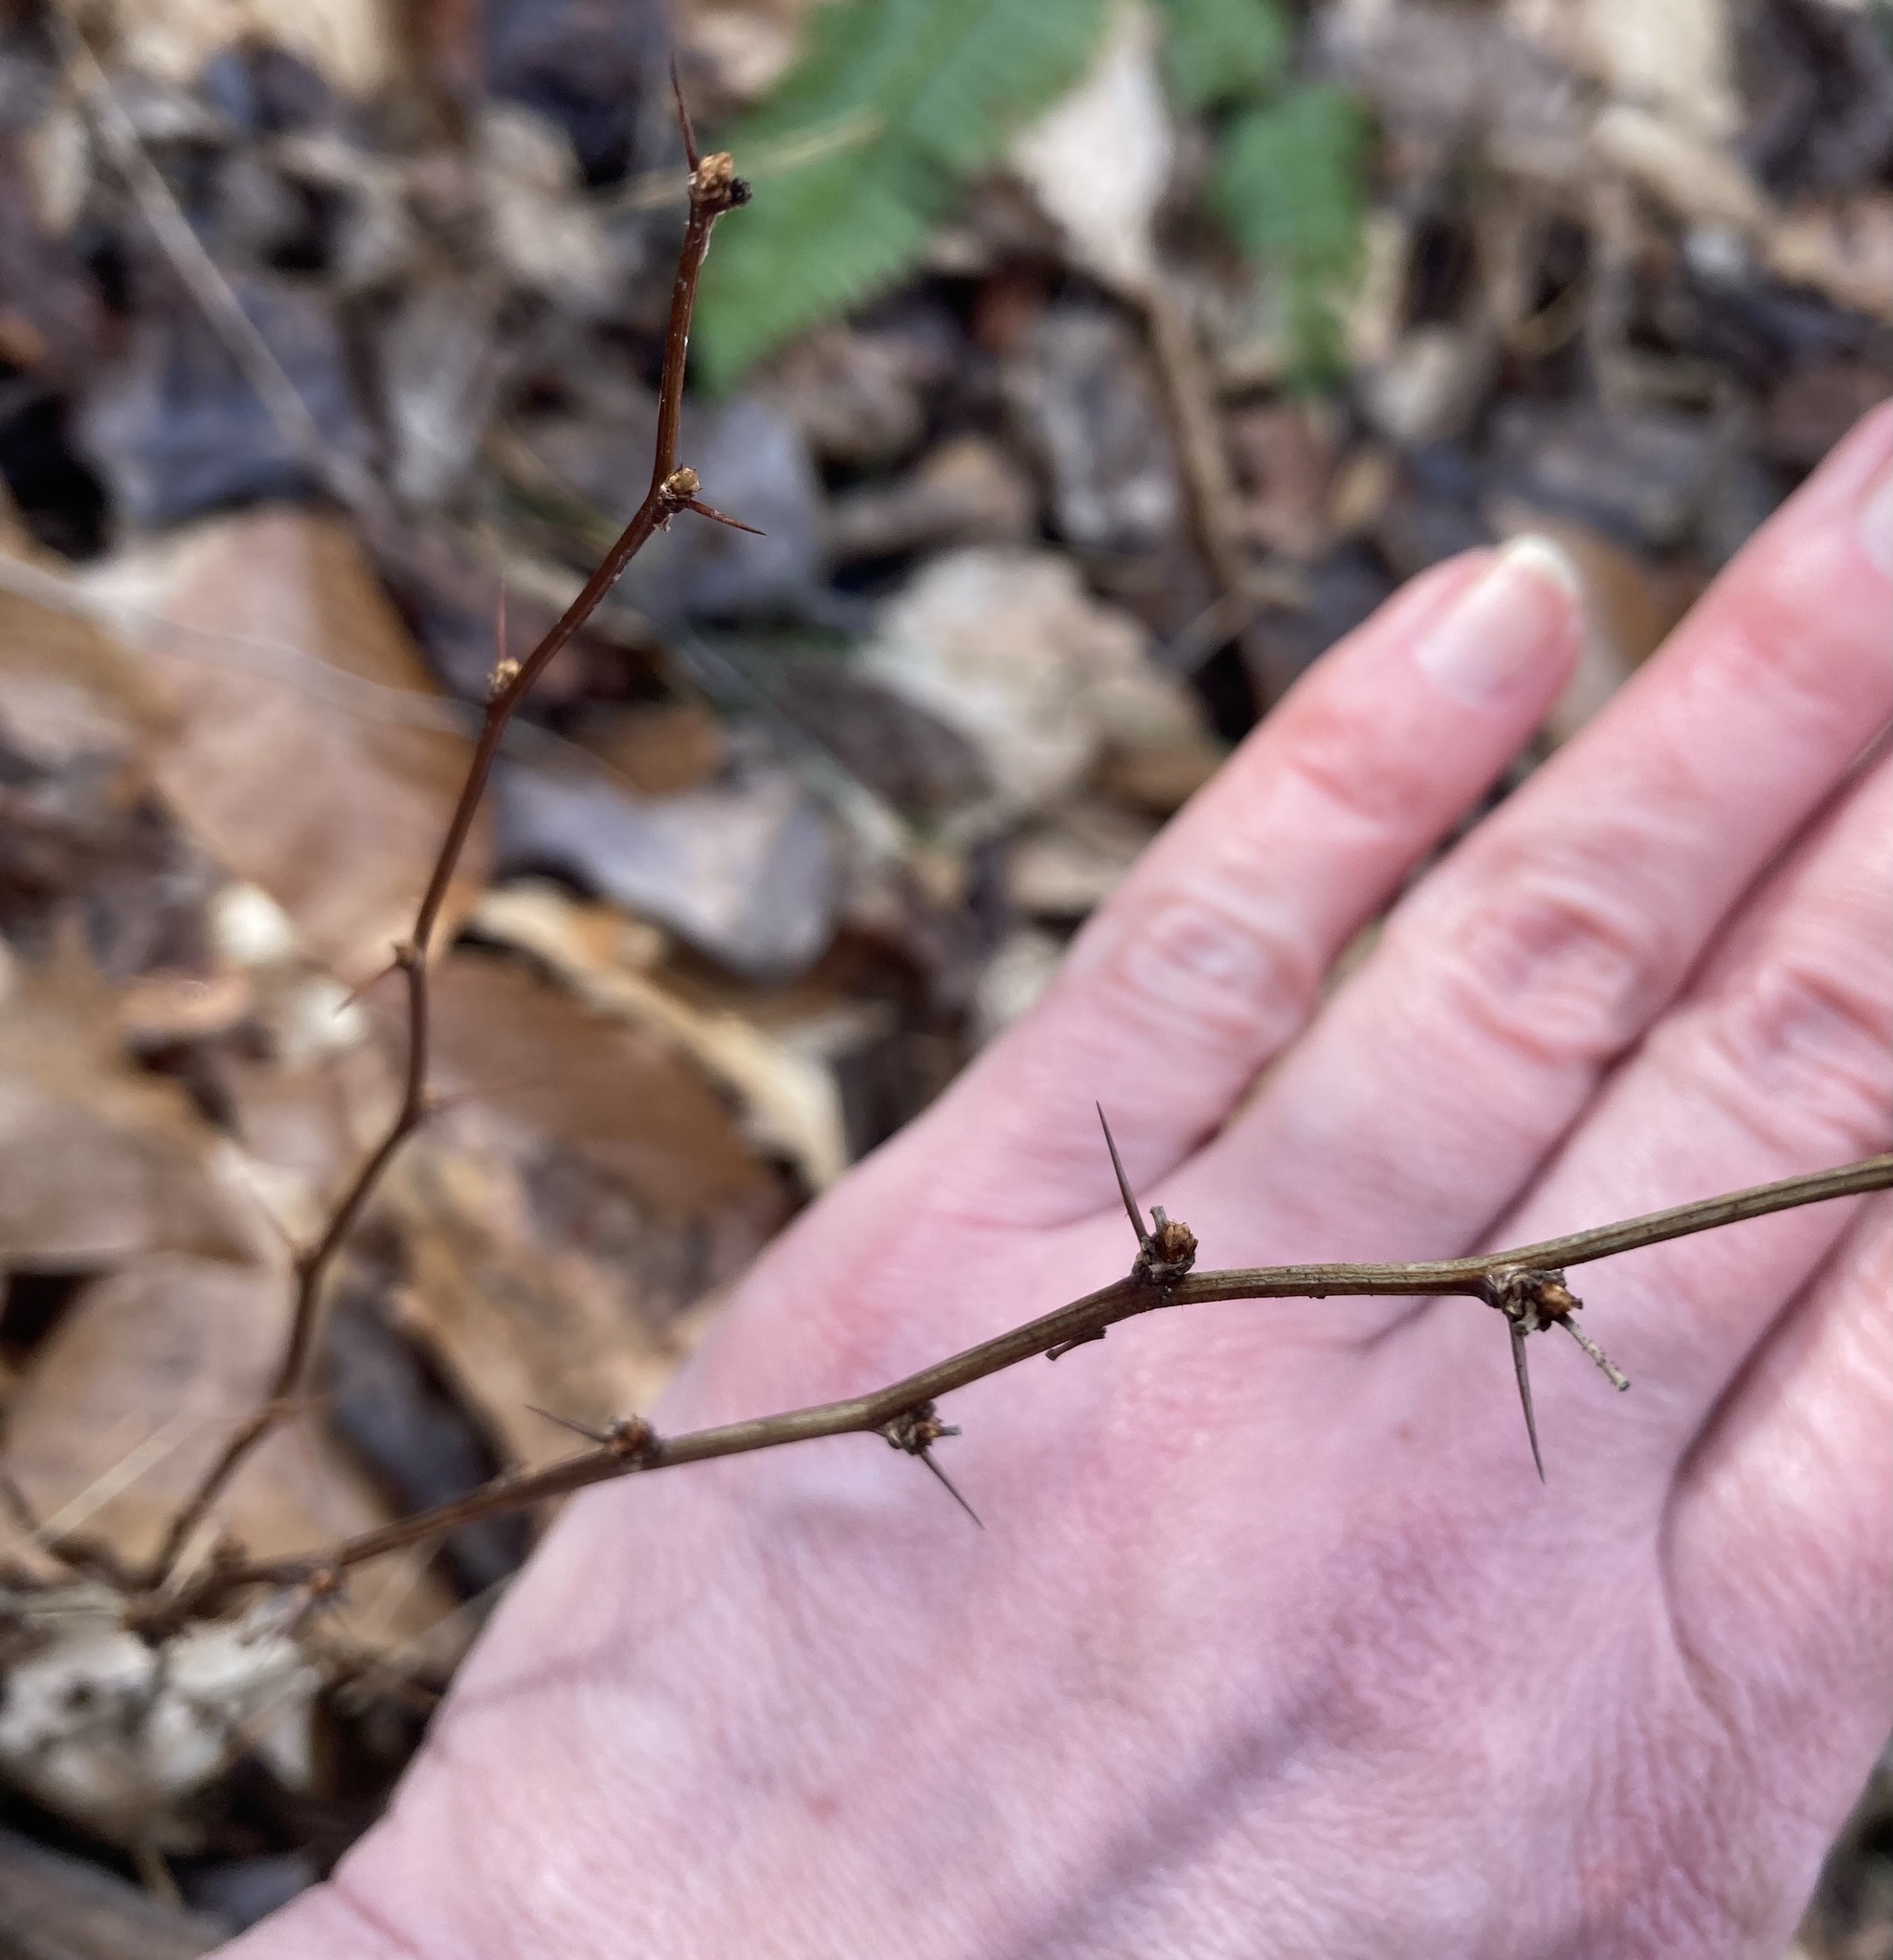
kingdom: Plantae
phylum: Tracheophyta
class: Magnoliopsida
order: Ranunculales
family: Berberidaceae
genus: Berberis
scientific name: Berberis thunbergii
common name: Japanese barberry
